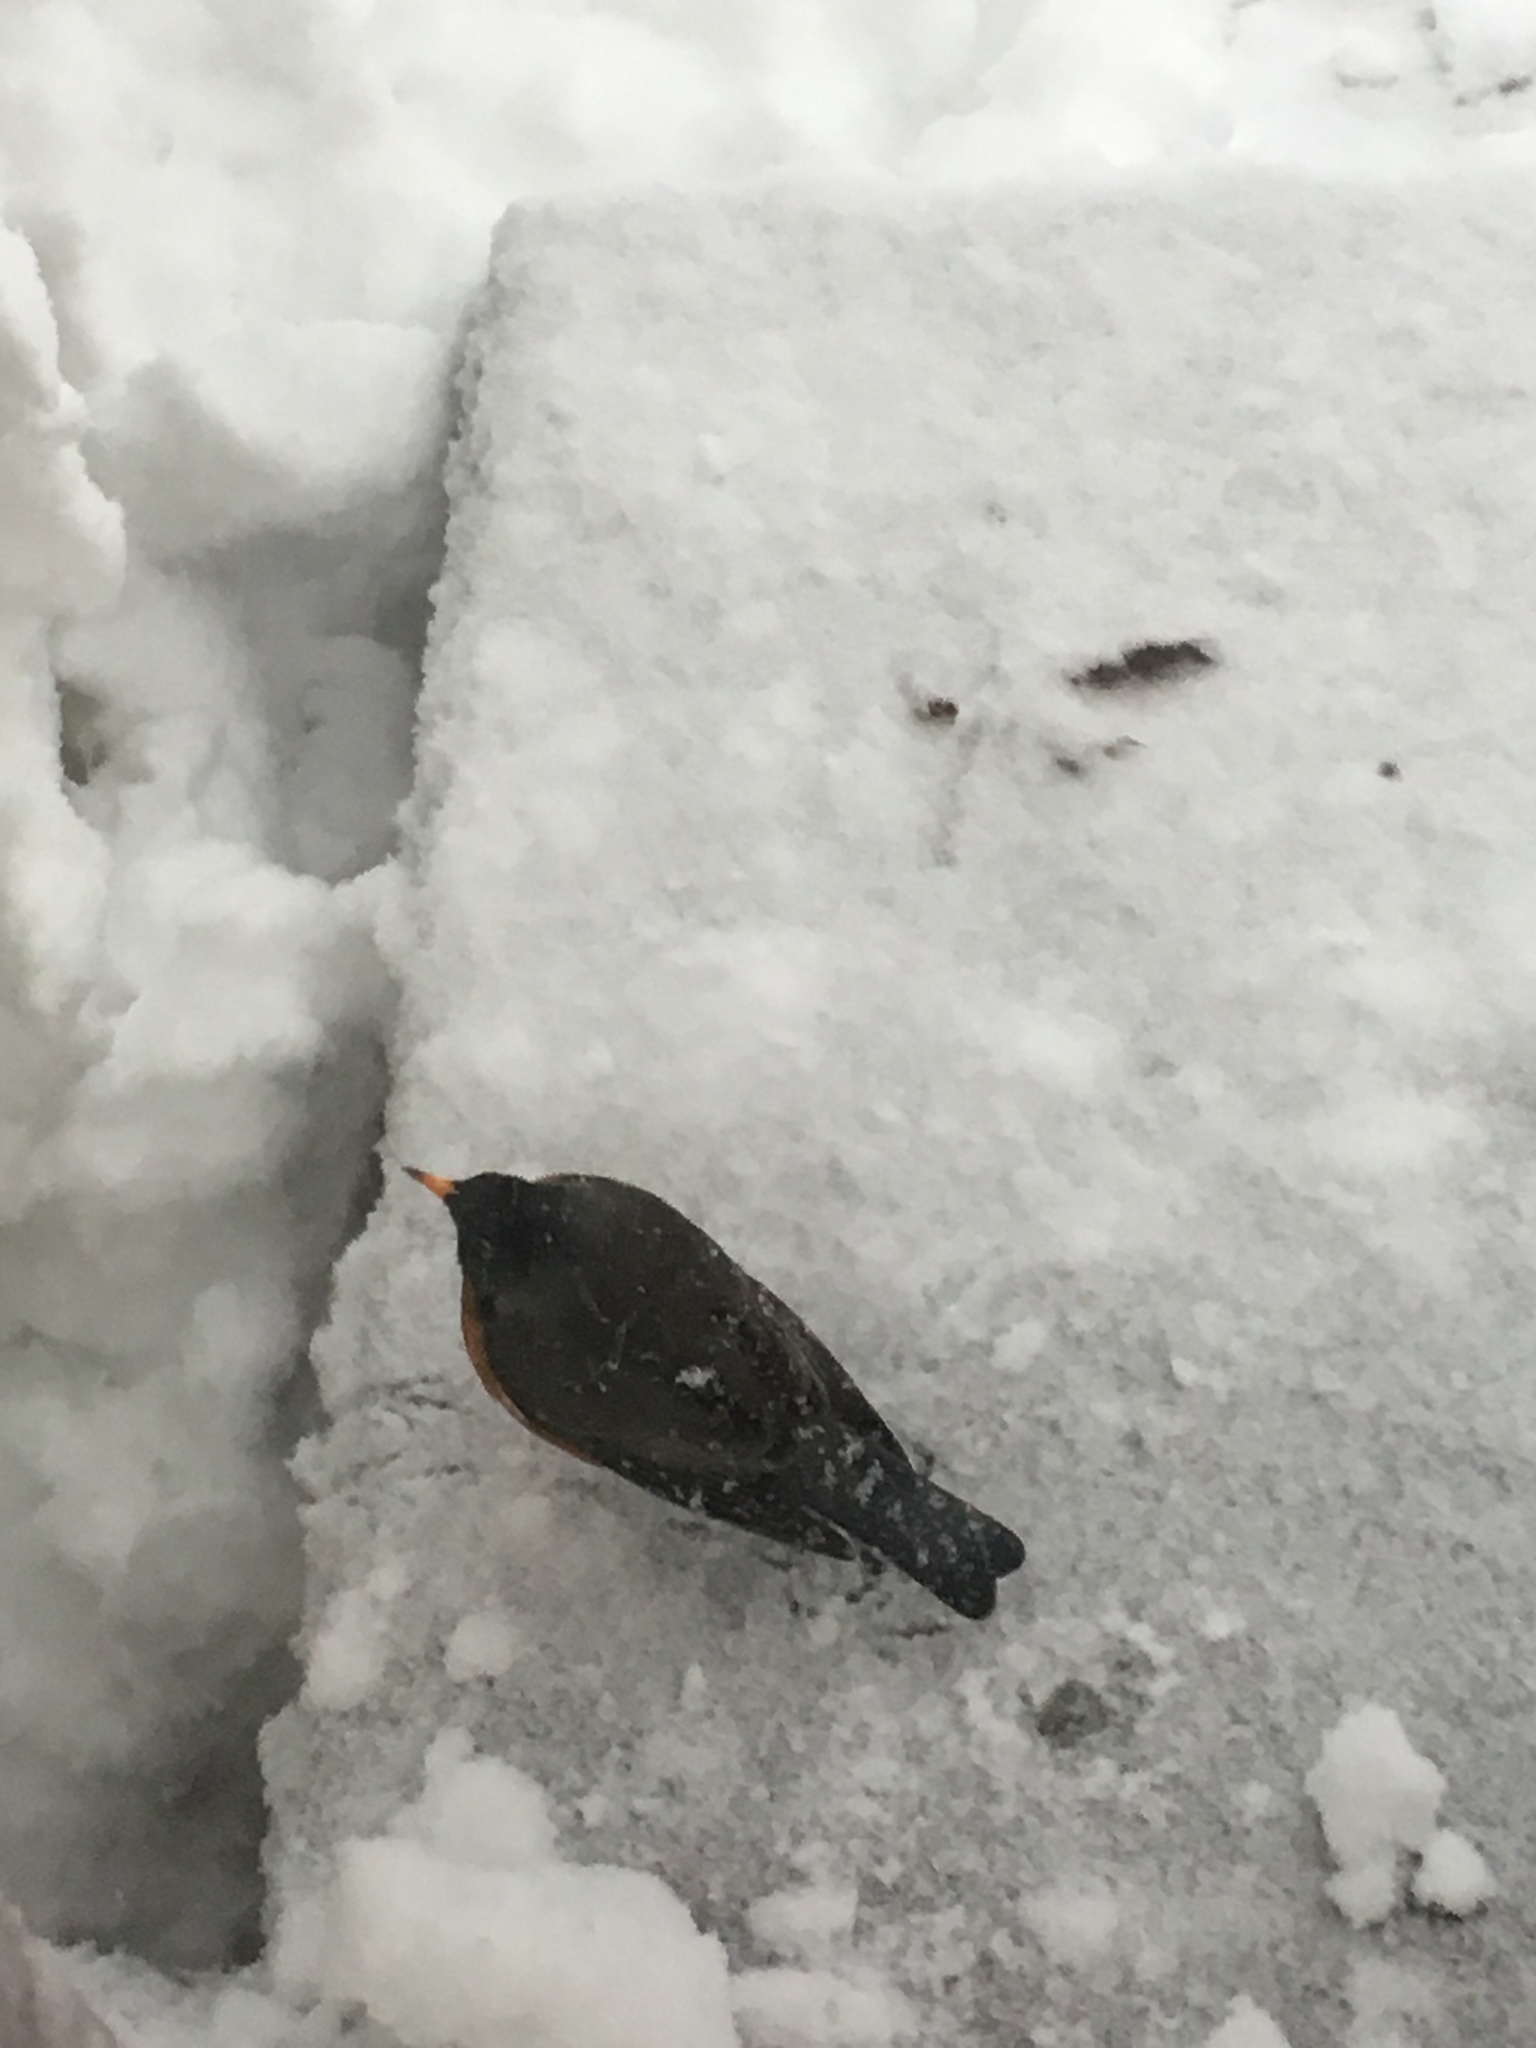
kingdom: Animalia
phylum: Chordata
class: Aves
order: Passeriformes
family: Turdidae
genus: Turdus
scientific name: Turdus migratorius
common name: American robin
